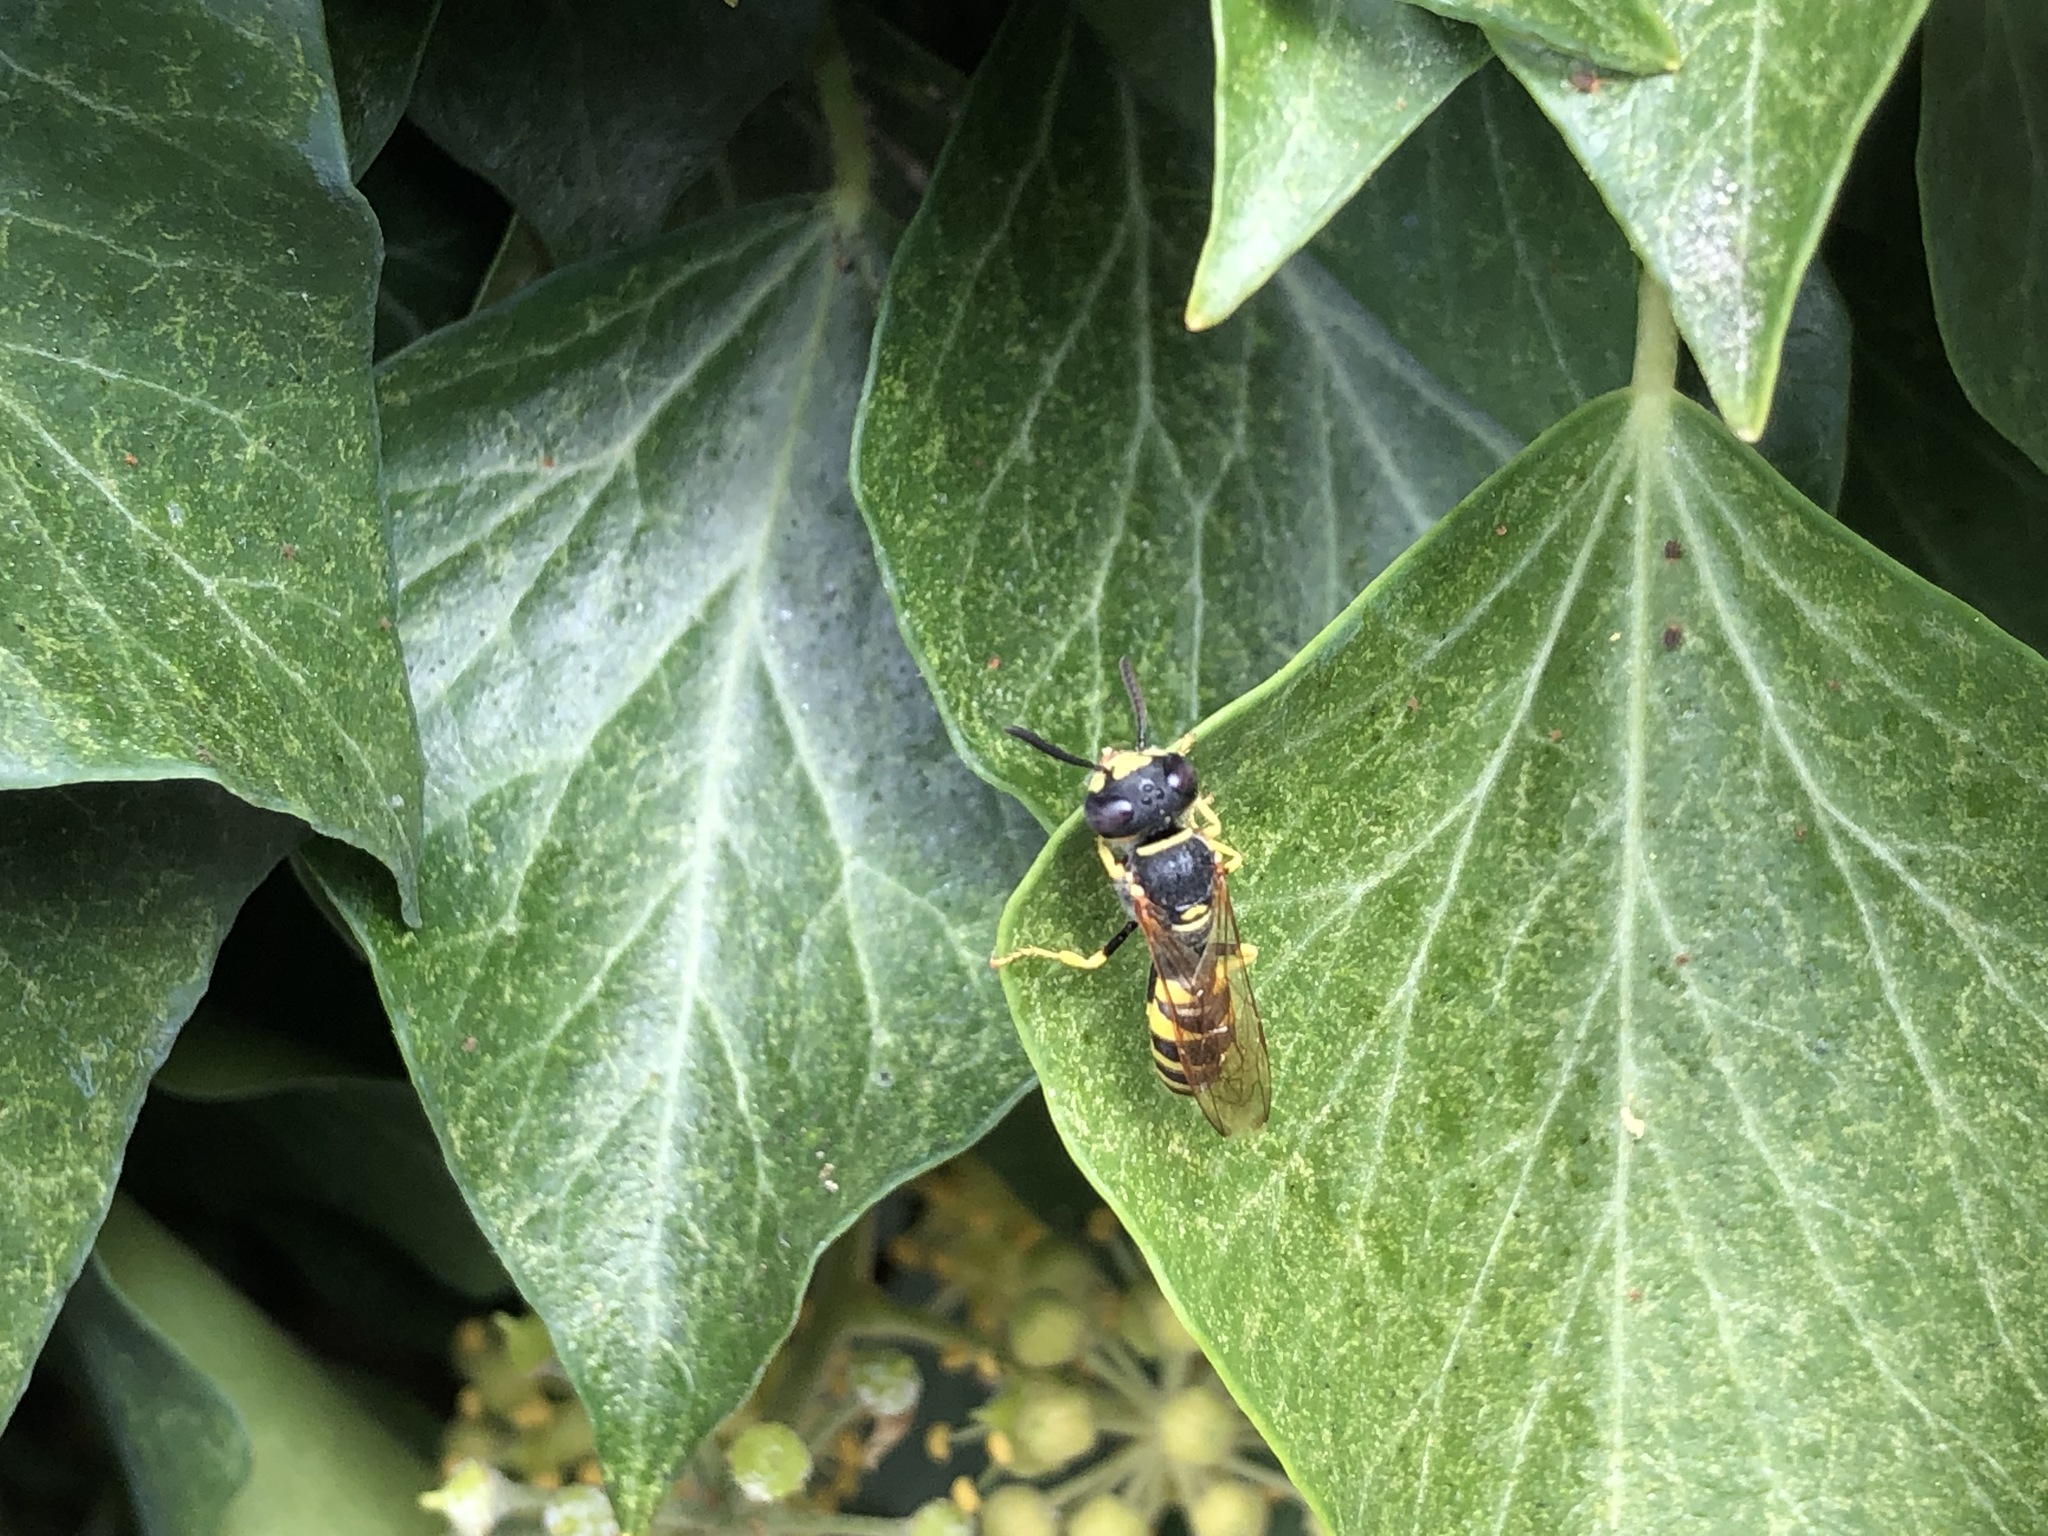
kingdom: Animalia
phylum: Arthropoda
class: Insecta
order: Hymenoptera
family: Crabronidae
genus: Philanthus
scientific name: Philanthus triangulum
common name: Bee wolf
